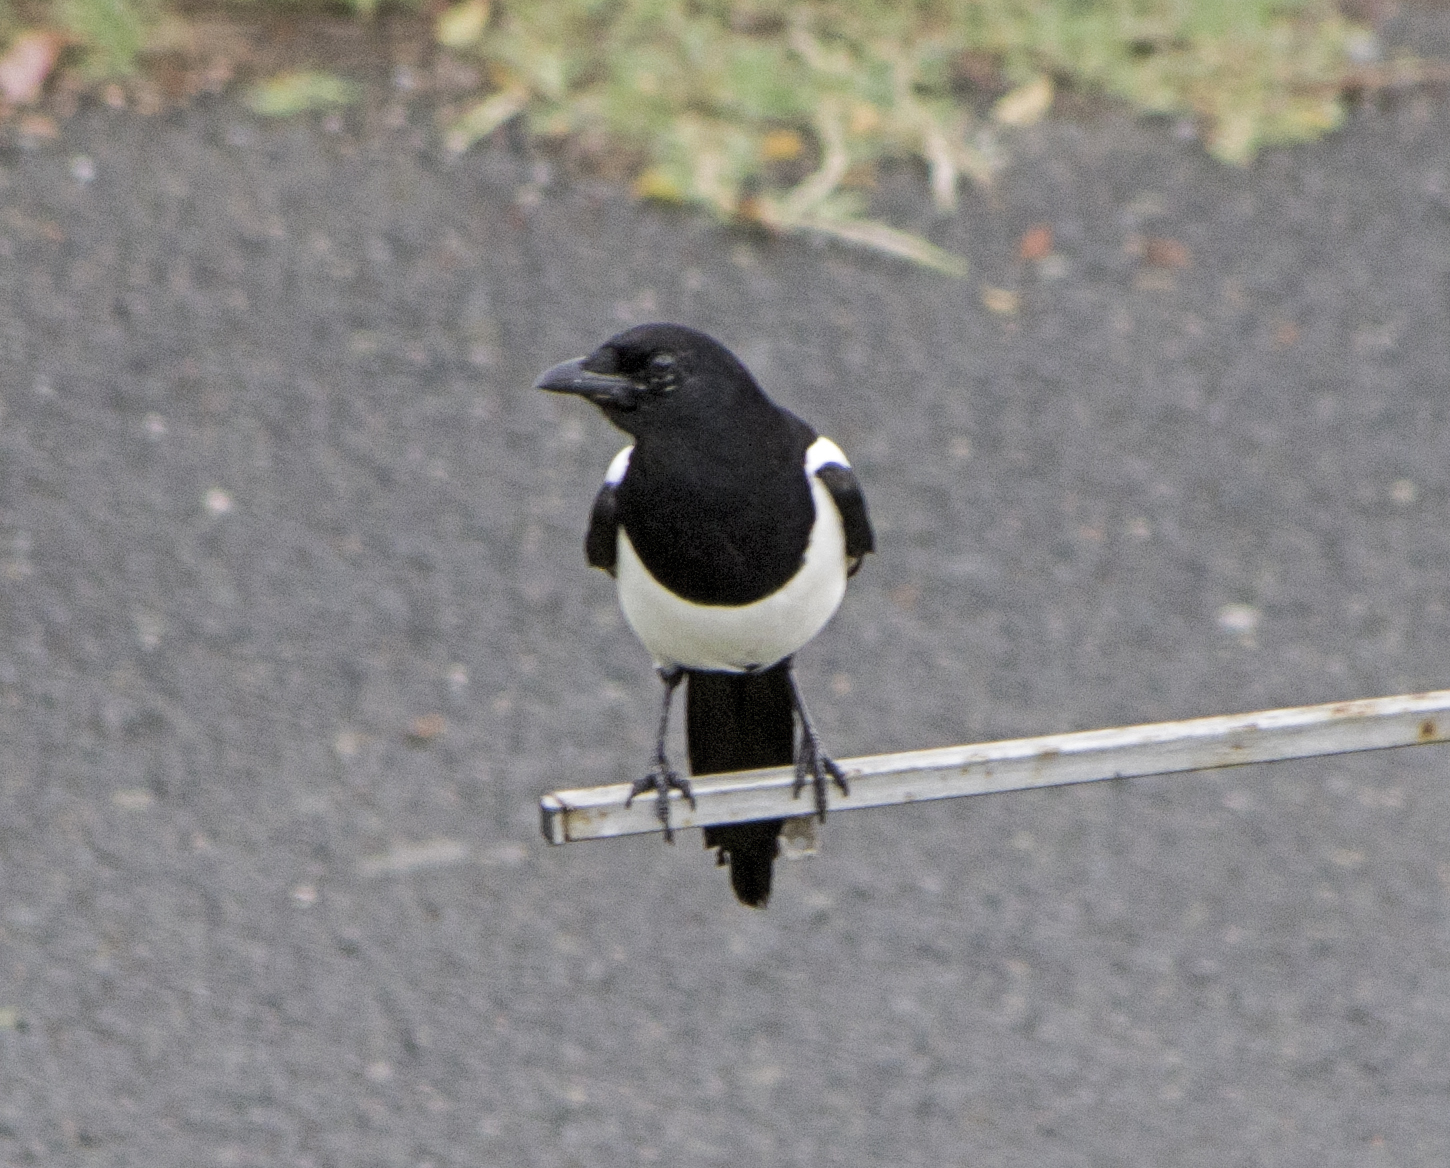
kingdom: Animalia
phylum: Chordata
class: Aves
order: Passeriformes
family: Corvidae
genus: Pica
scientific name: Pica pica
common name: Eurasian magpie
